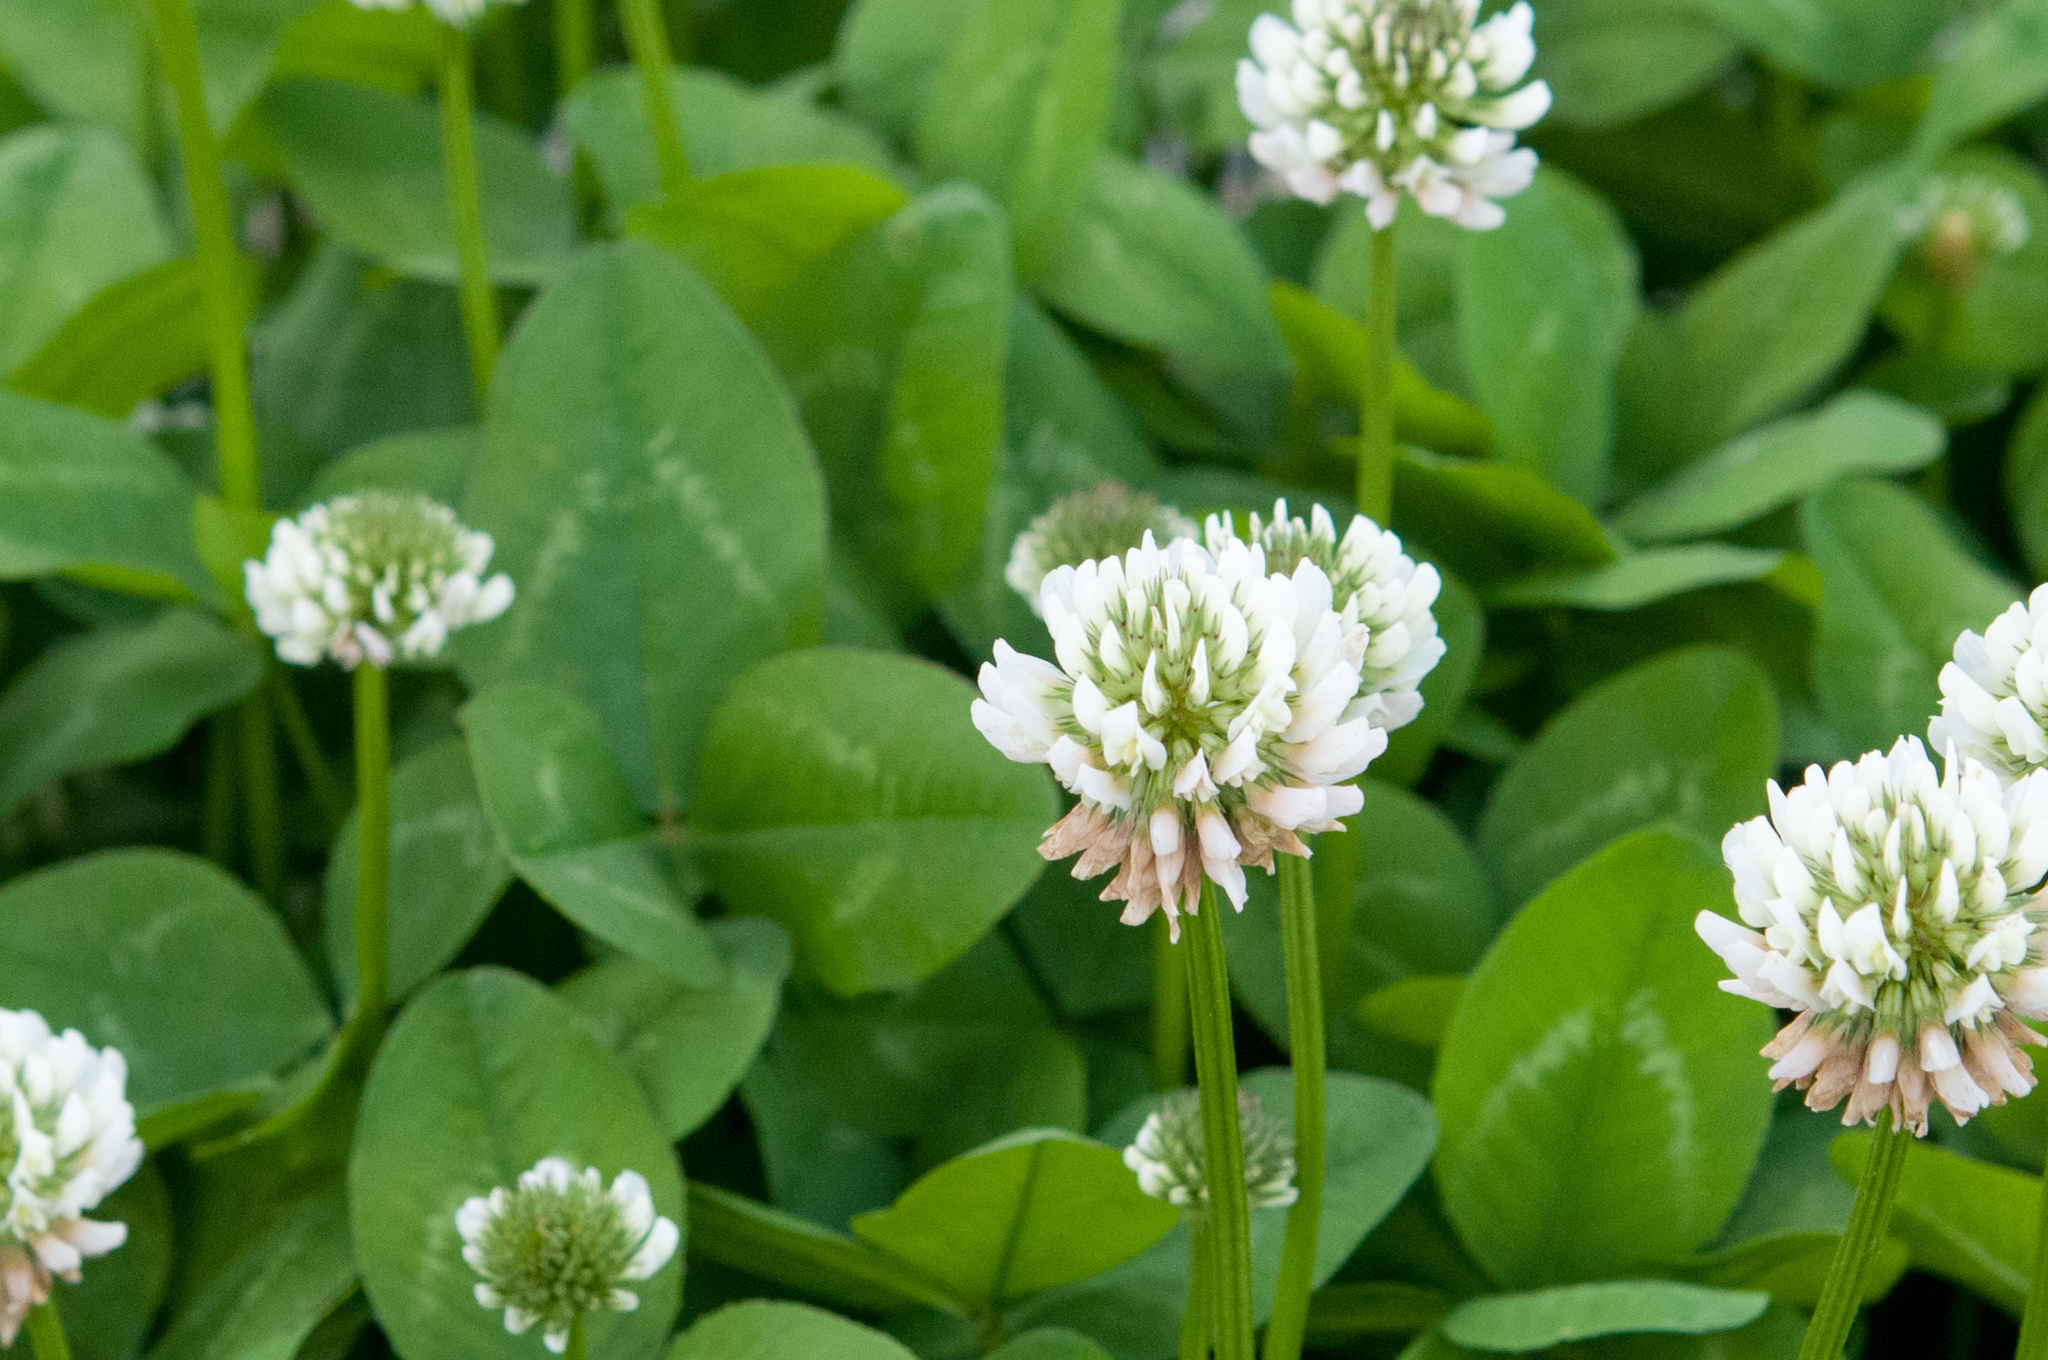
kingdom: Plantae
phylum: Tracheophyta
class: Magnoliopsida
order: Fabales
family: Fabaceae
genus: Trifolium
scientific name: Trifolium repens
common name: White clover
